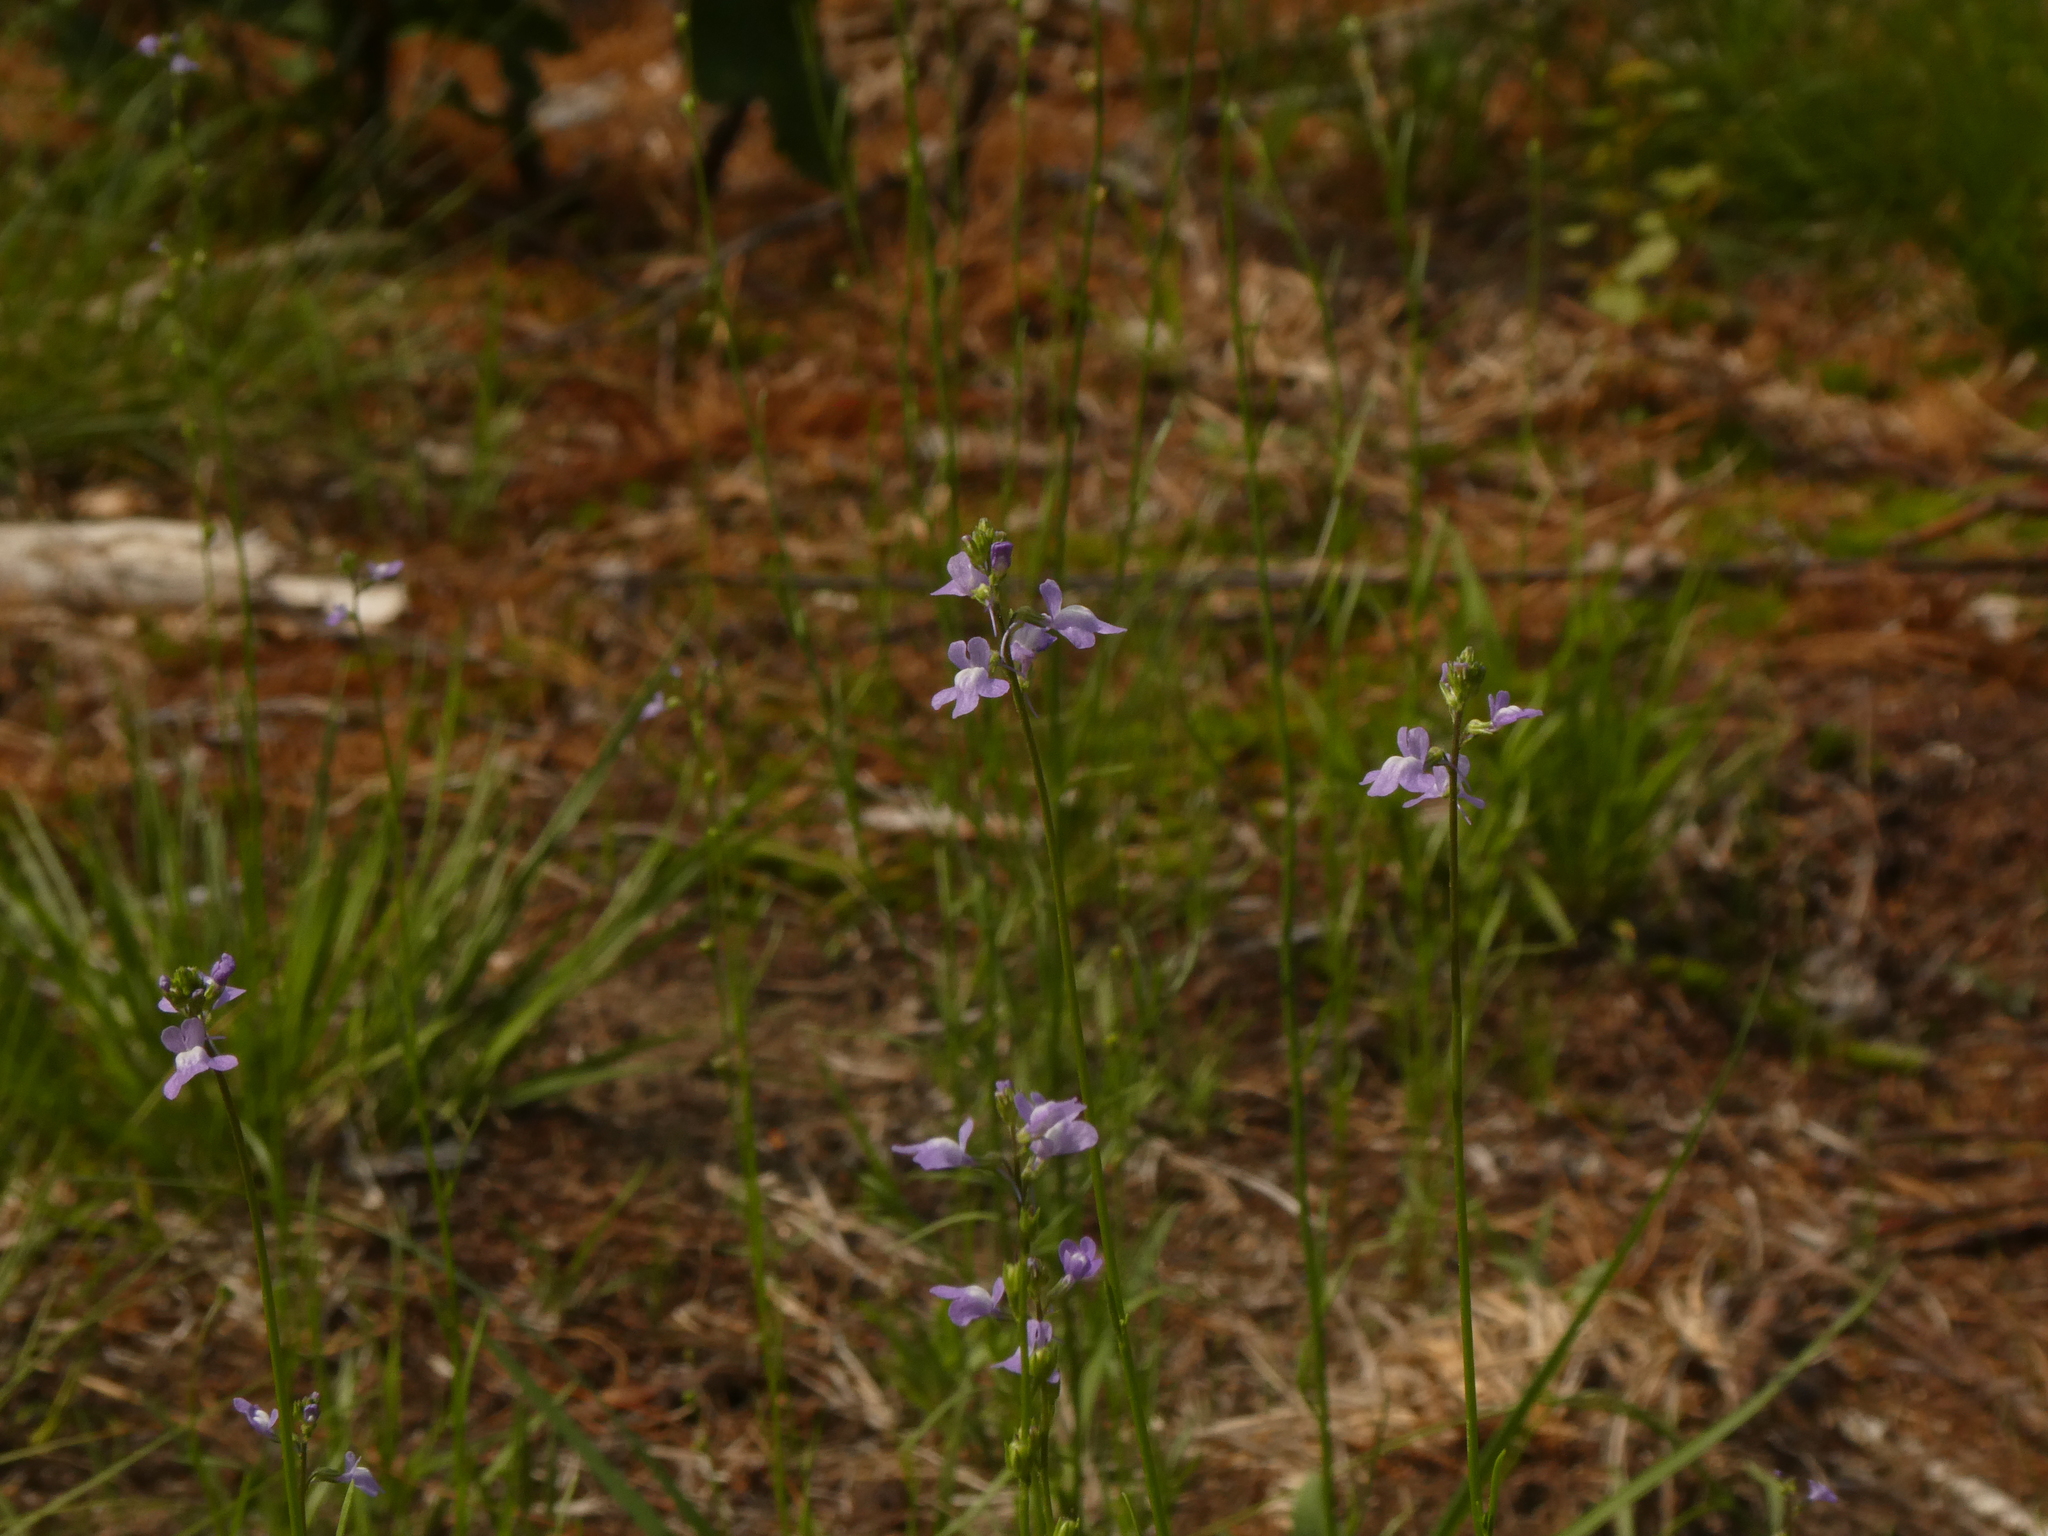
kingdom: Plantae
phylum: Tracheophyta
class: Magnoliopsida
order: Lamiales
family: Plantaginaceae
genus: Nuttallanthus
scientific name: Nuttallanthus canadensis
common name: Blue toadflax
